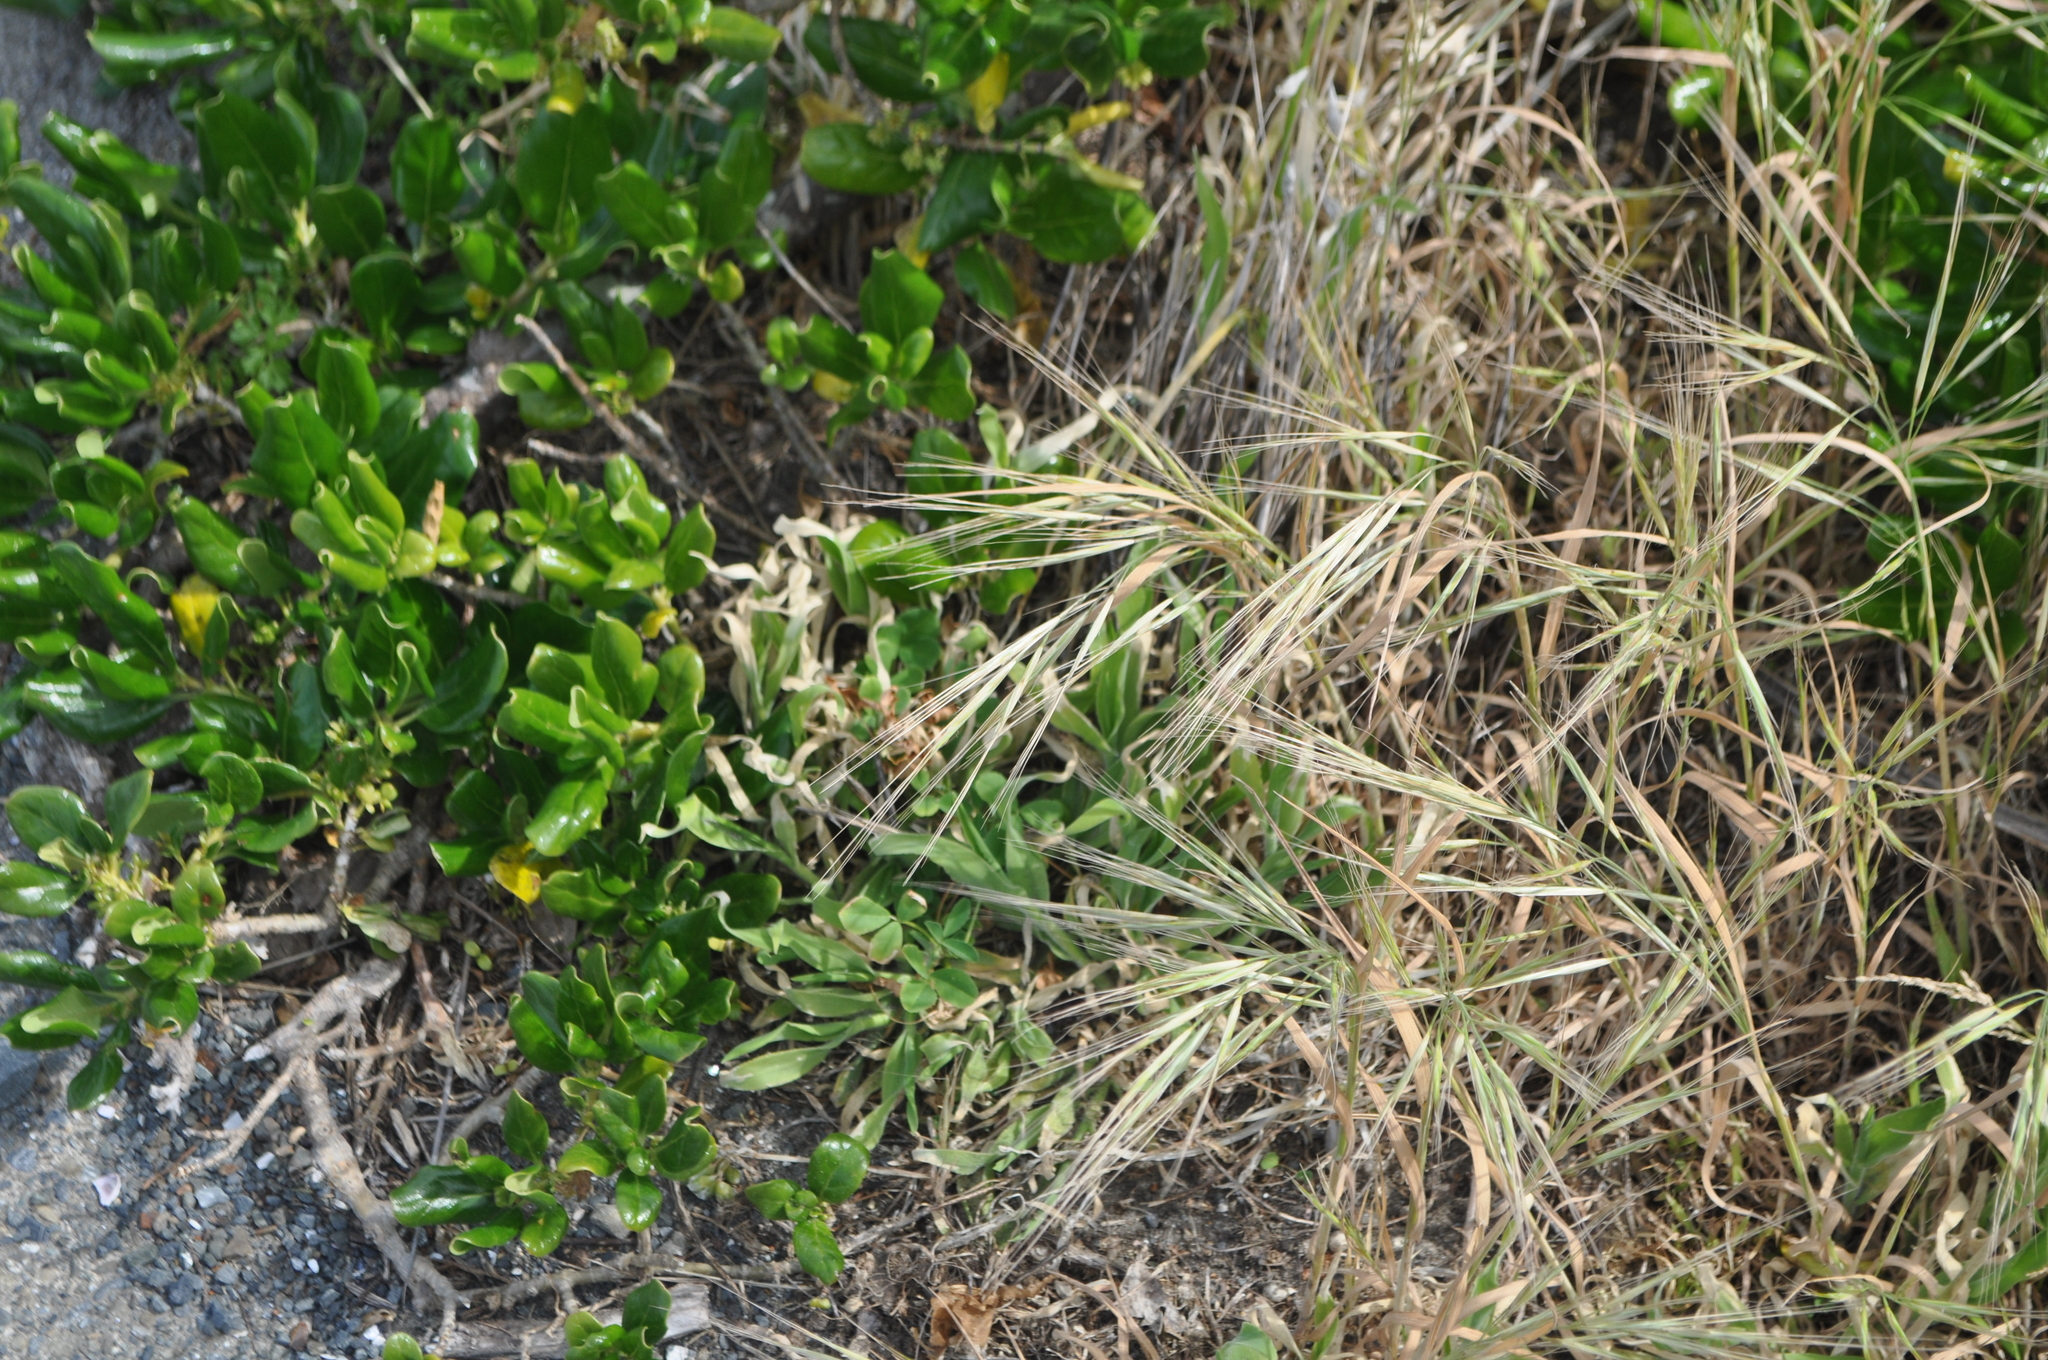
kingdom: Plantae
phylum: Tracheophyta
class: Liliopsida
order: Poales
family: Poaceae
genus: Bromus
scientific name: Bromus diandrus
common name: Ripgut brome
